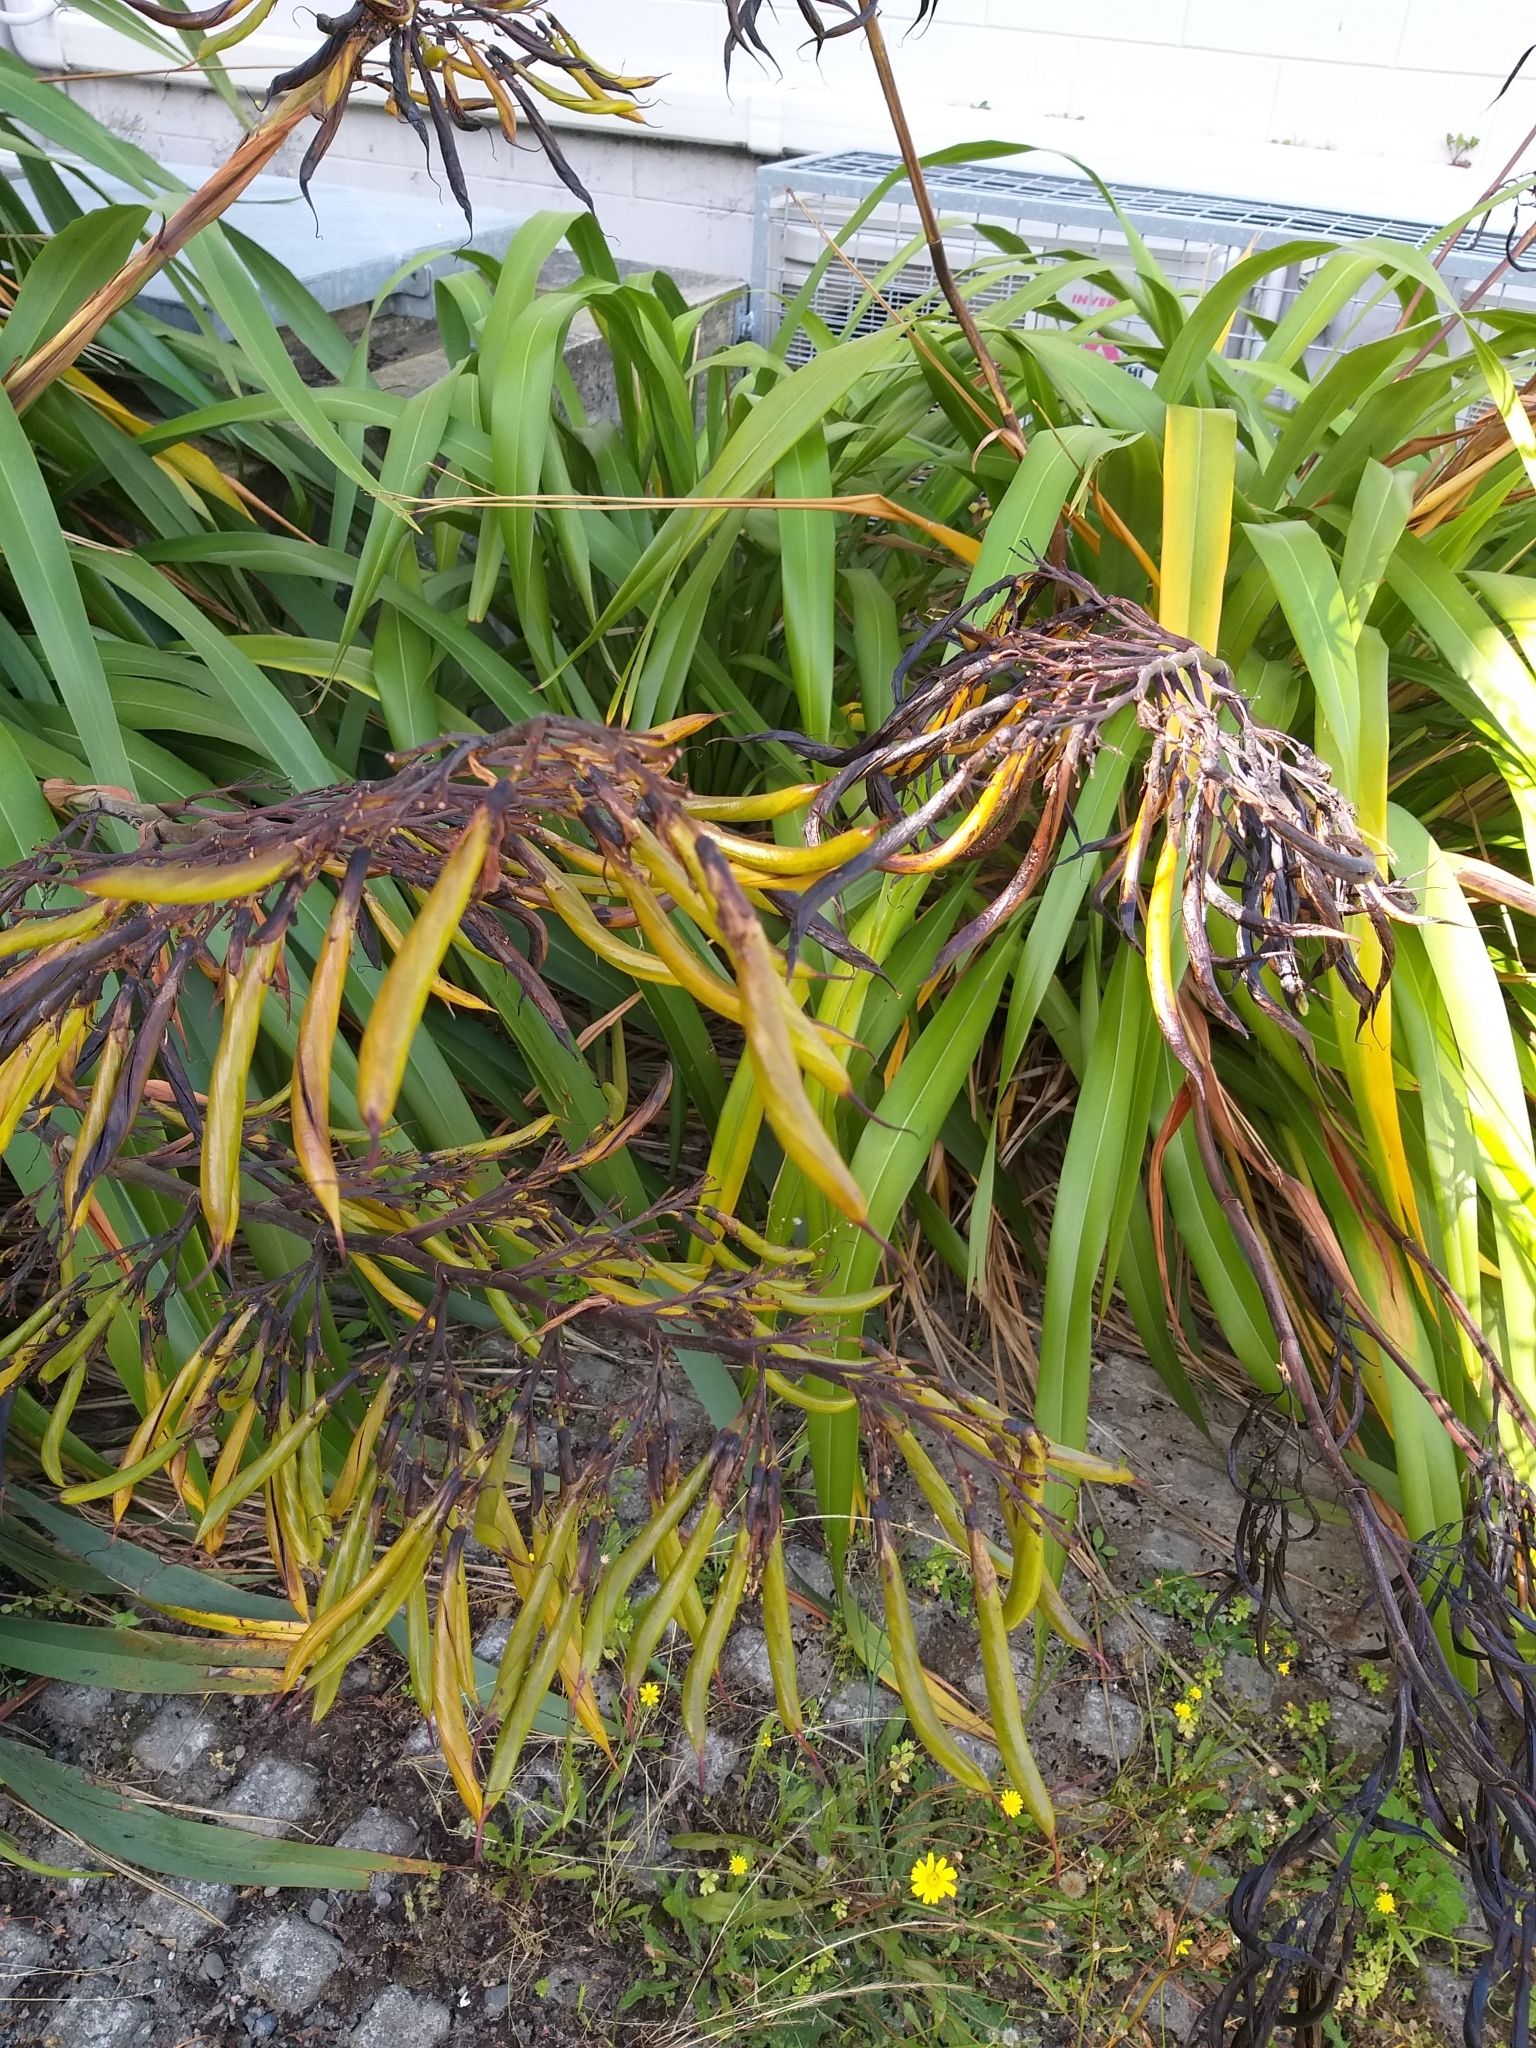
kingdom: Plantae
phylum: Tracheophyta
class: Liliopsida
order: Asparagales
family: Asphodelaceae
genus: Phormium
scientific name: Phormium colensoi
